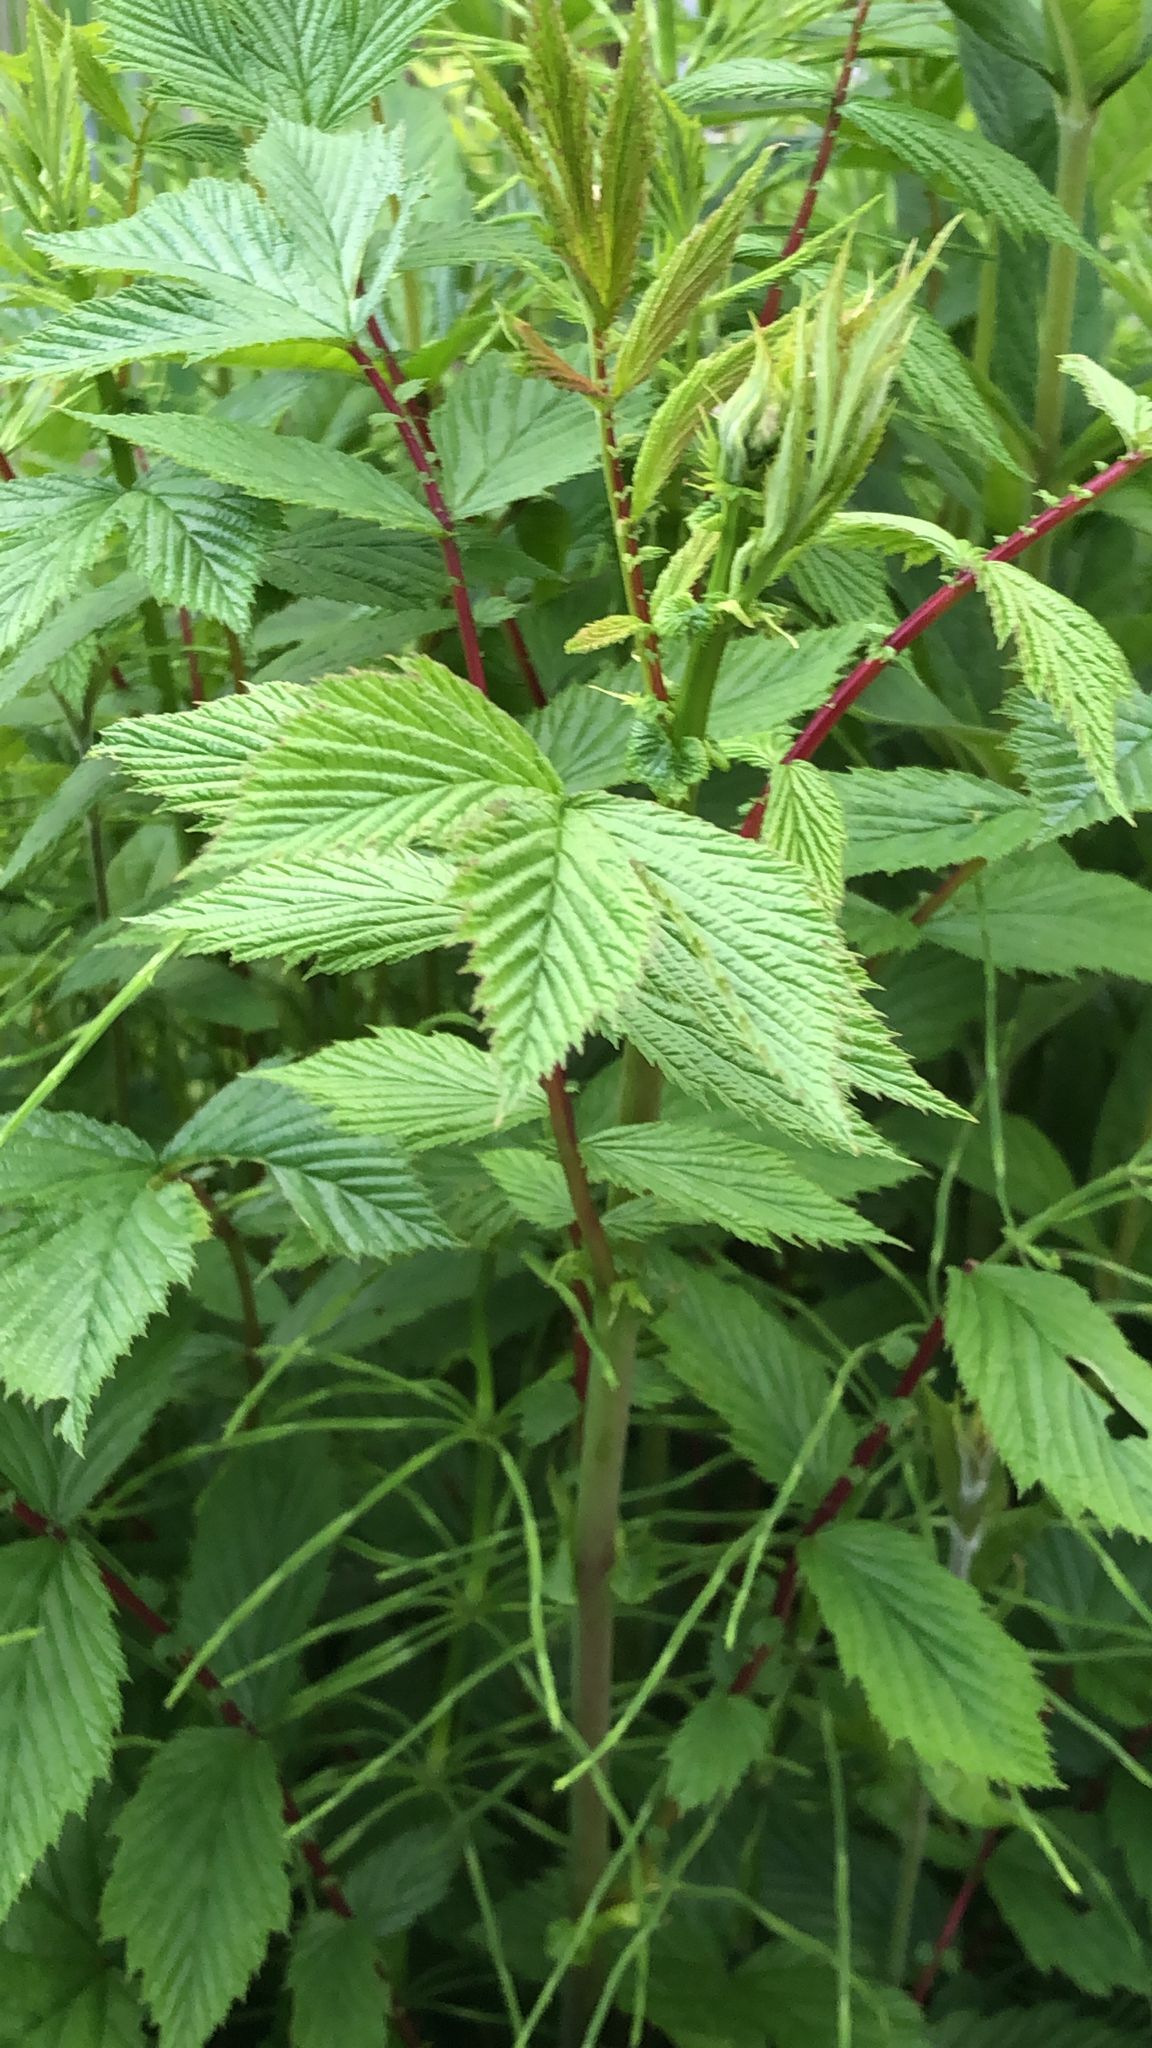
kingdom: Plantae
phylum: Tracheophyta
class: Magnoliopsida
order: Rosales
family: Rosaceae
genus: Filipendula
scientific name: Filipendula ulmaria
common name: Meadowsweet
